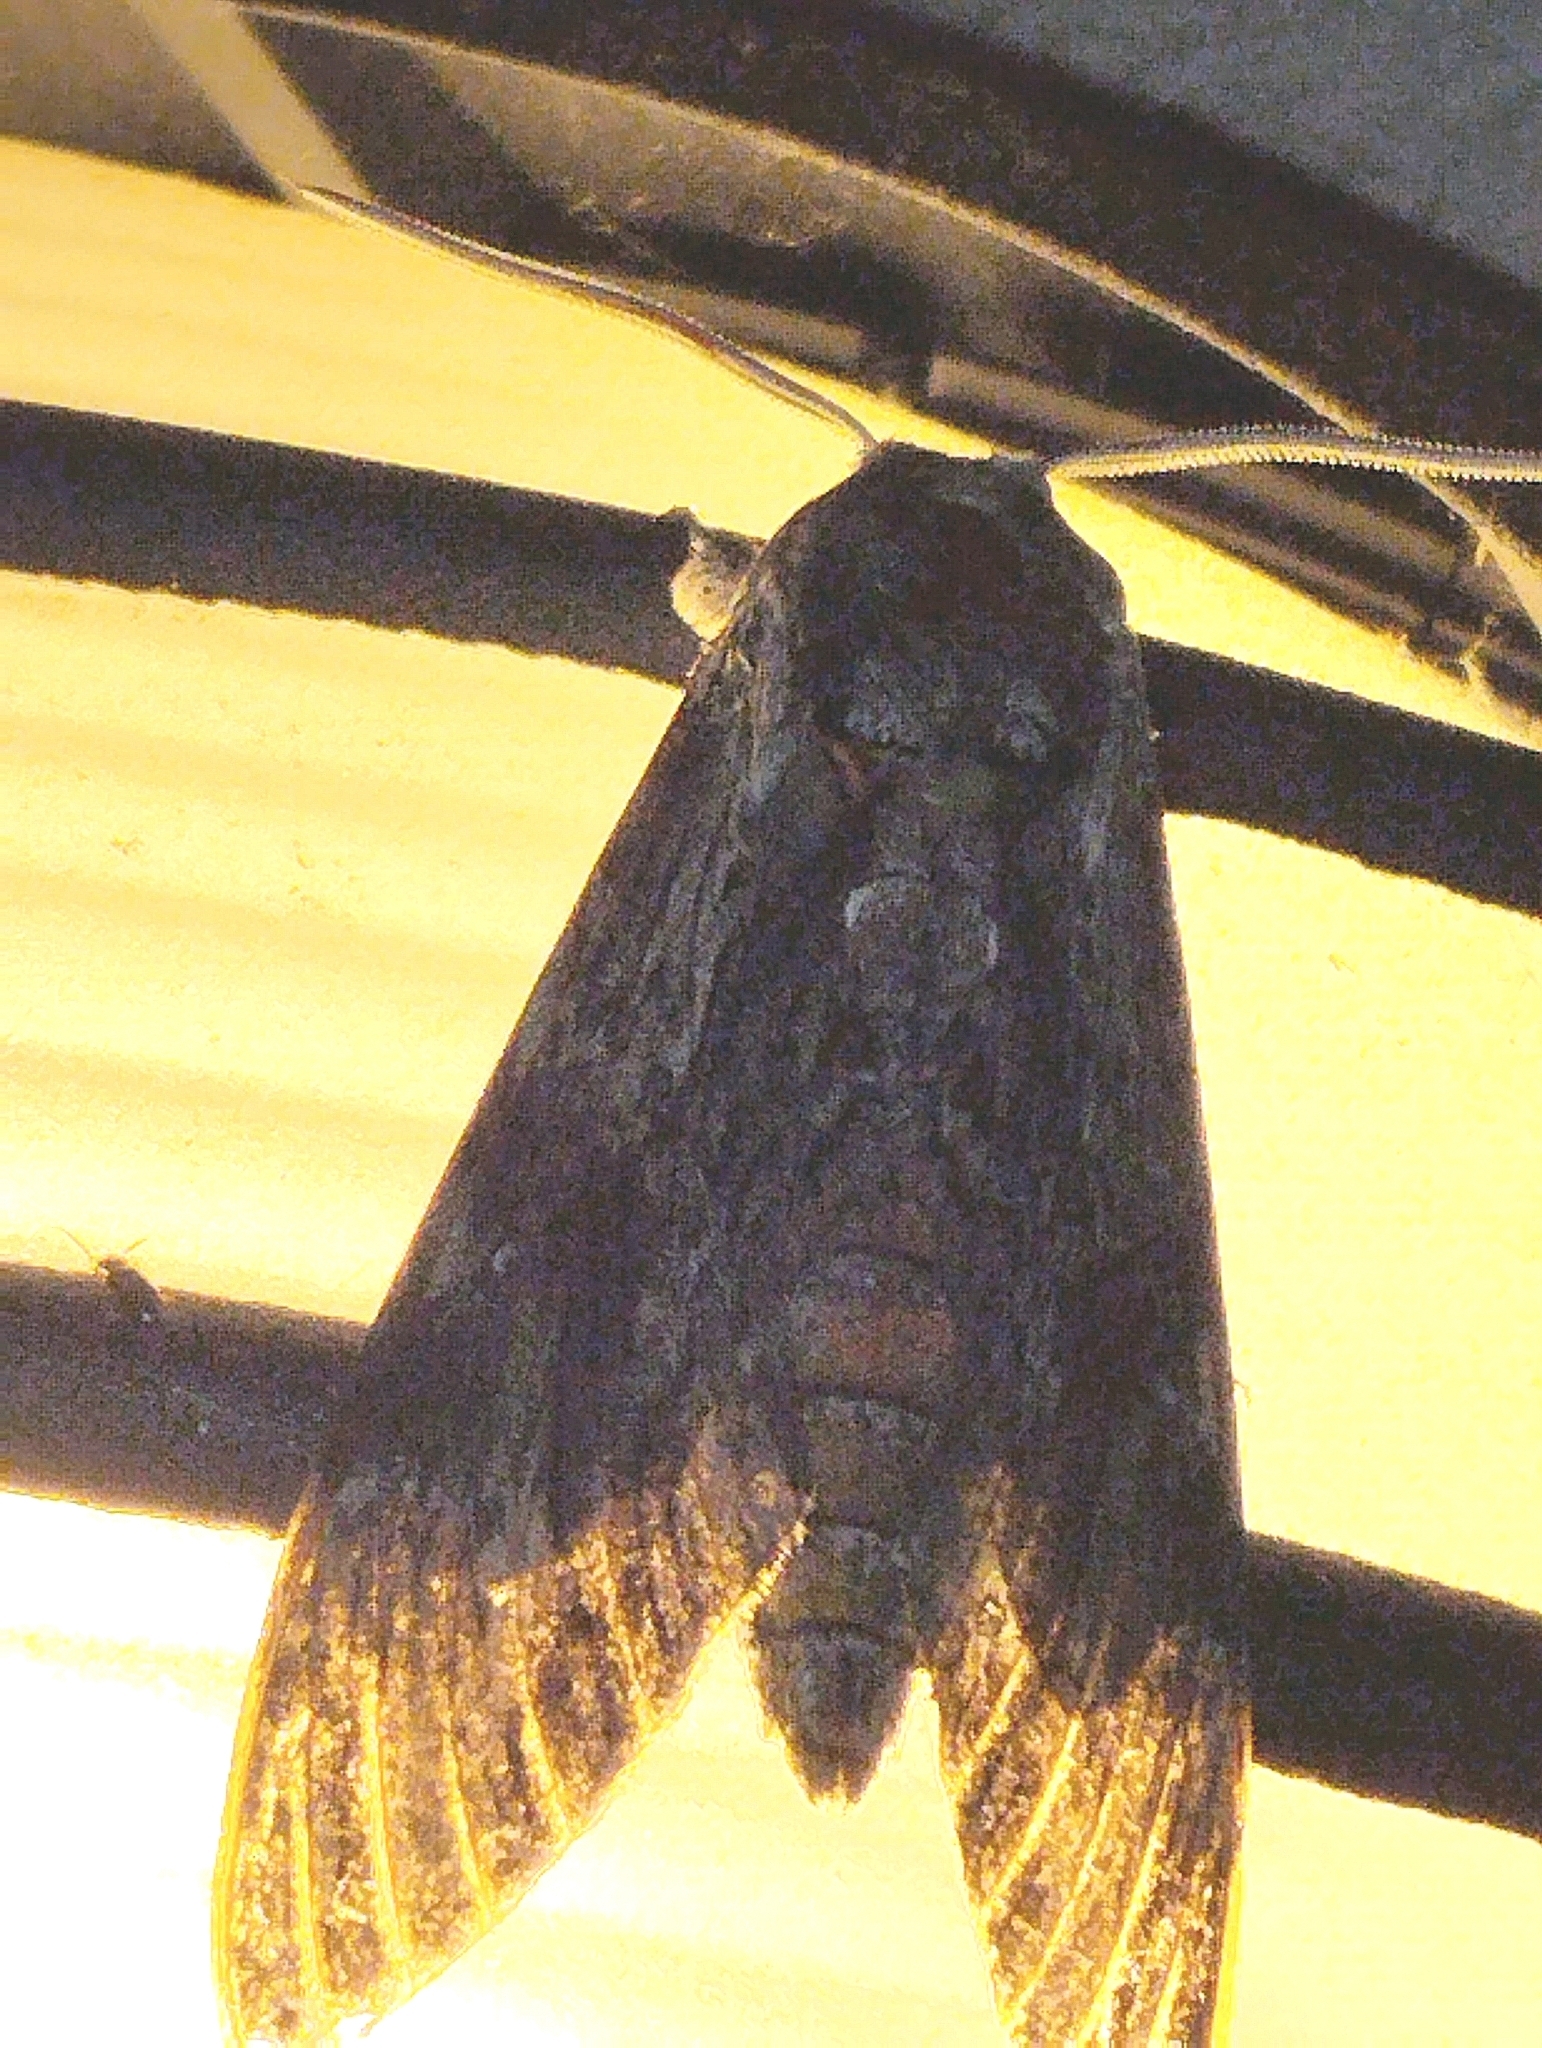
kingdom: Animalia
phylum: Arthropoda
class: Insecta
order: Lepidoptera
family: Sphingidae
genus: Agrius
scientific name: Agrius convolvuli
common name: Convolvulus hawkmoth
